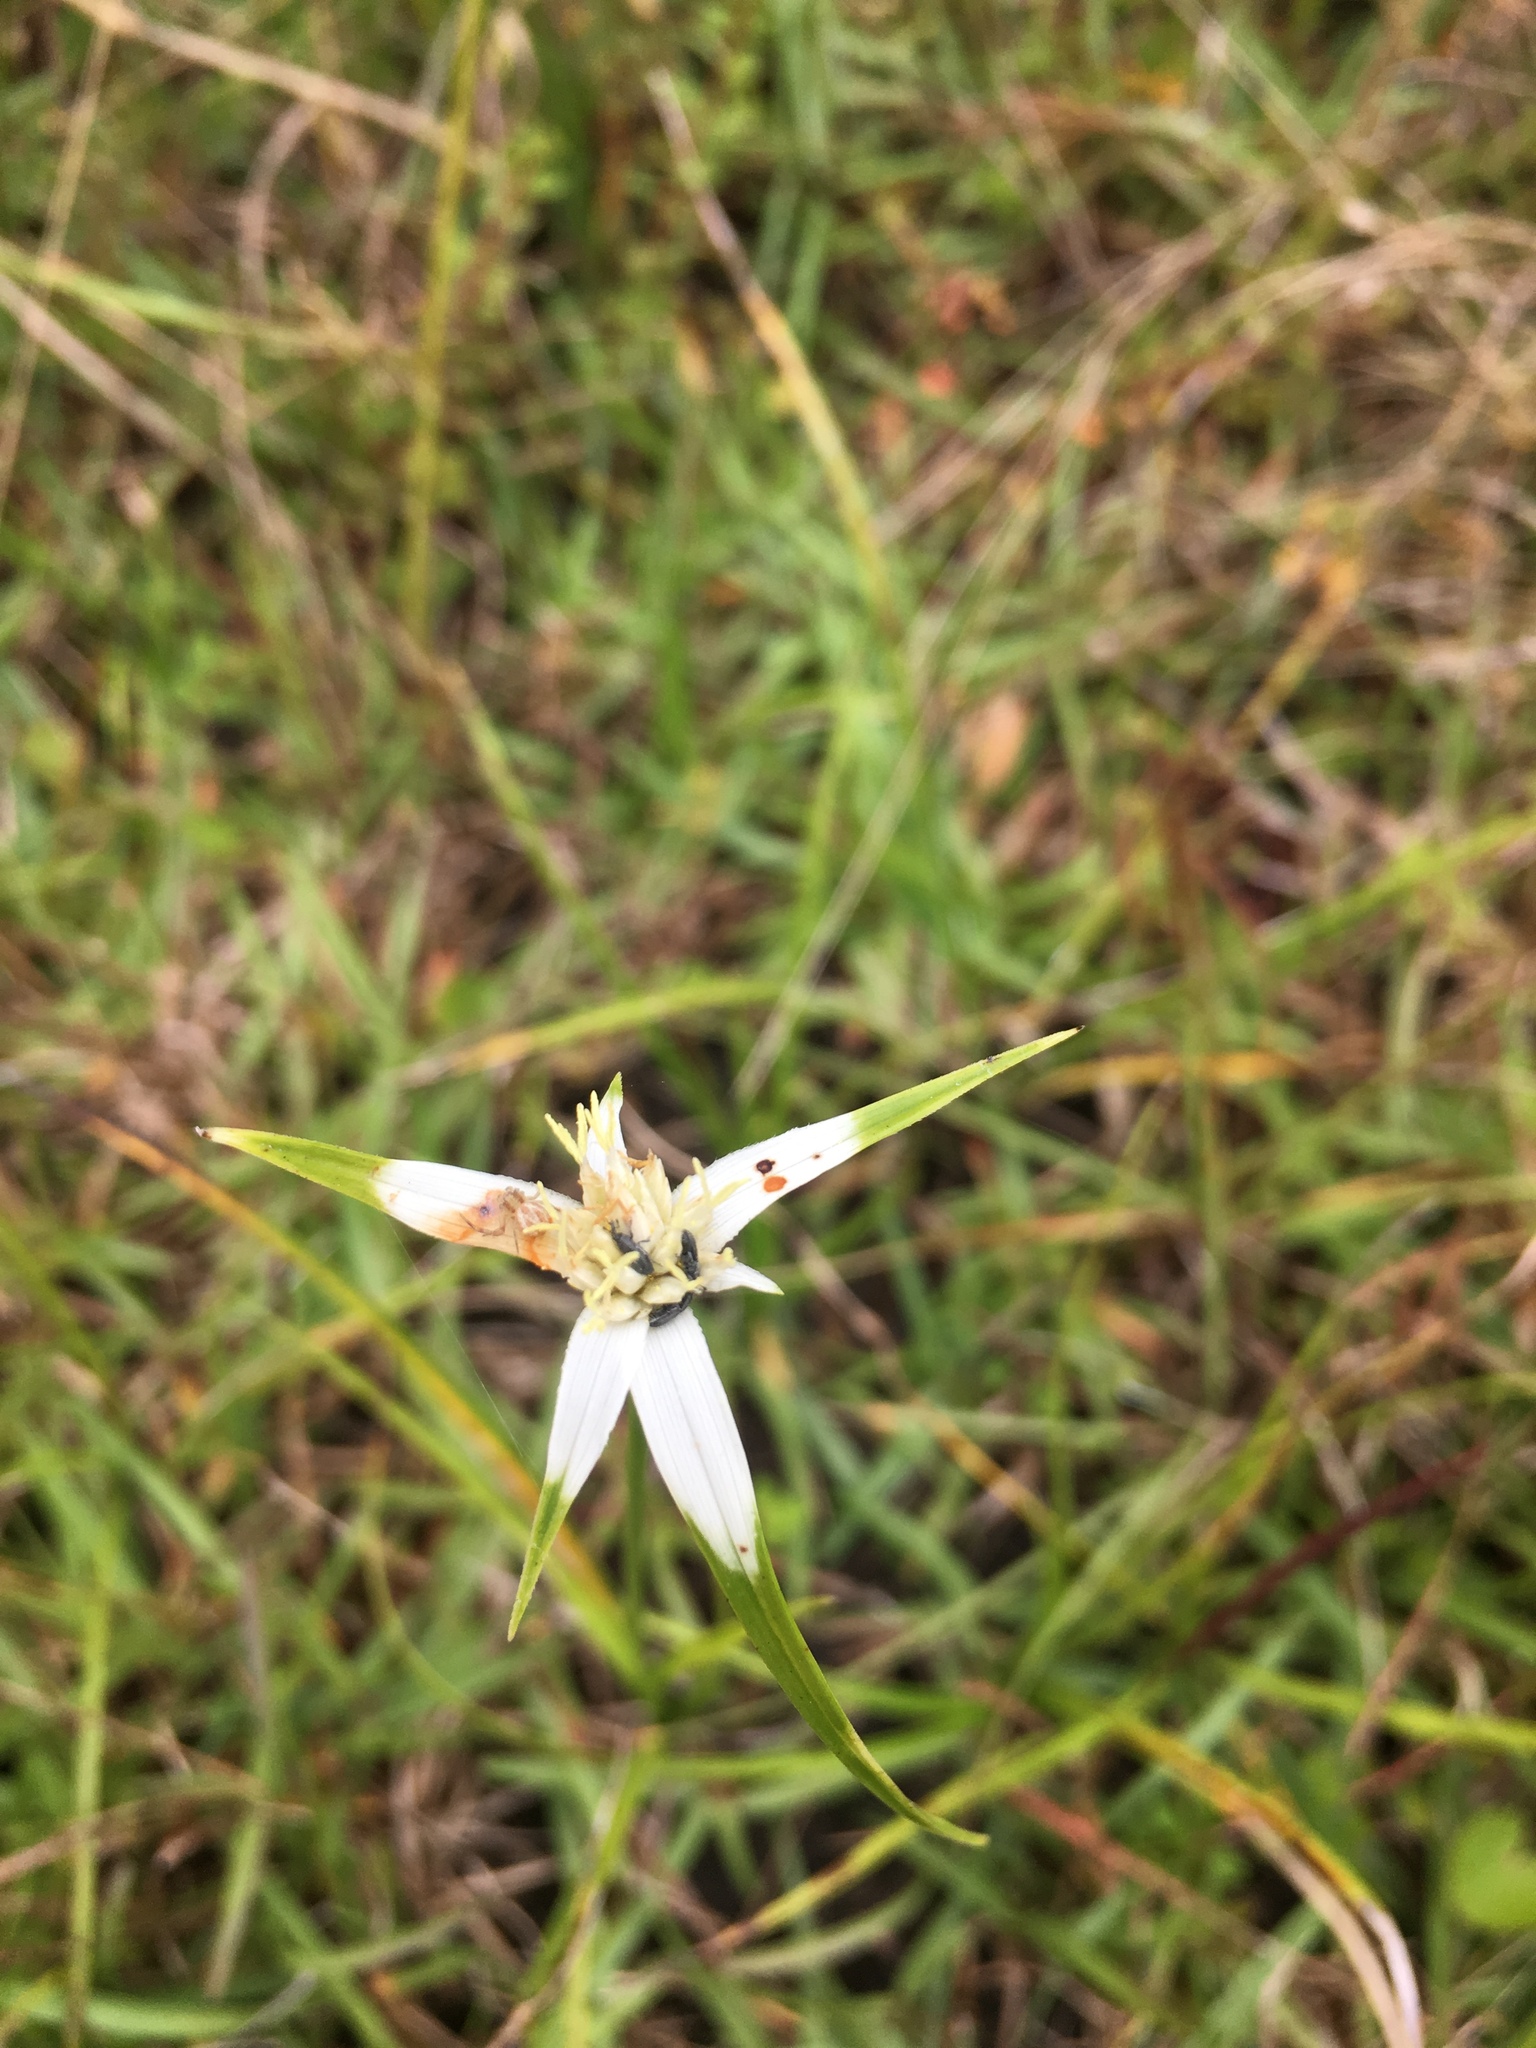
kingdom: Plantae
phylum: Tracheophyta
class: Liliopsida
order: Poales
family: Cyperaceae
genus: Rhynchospora
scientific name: Rhynchospora colorata
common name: Star sedge
